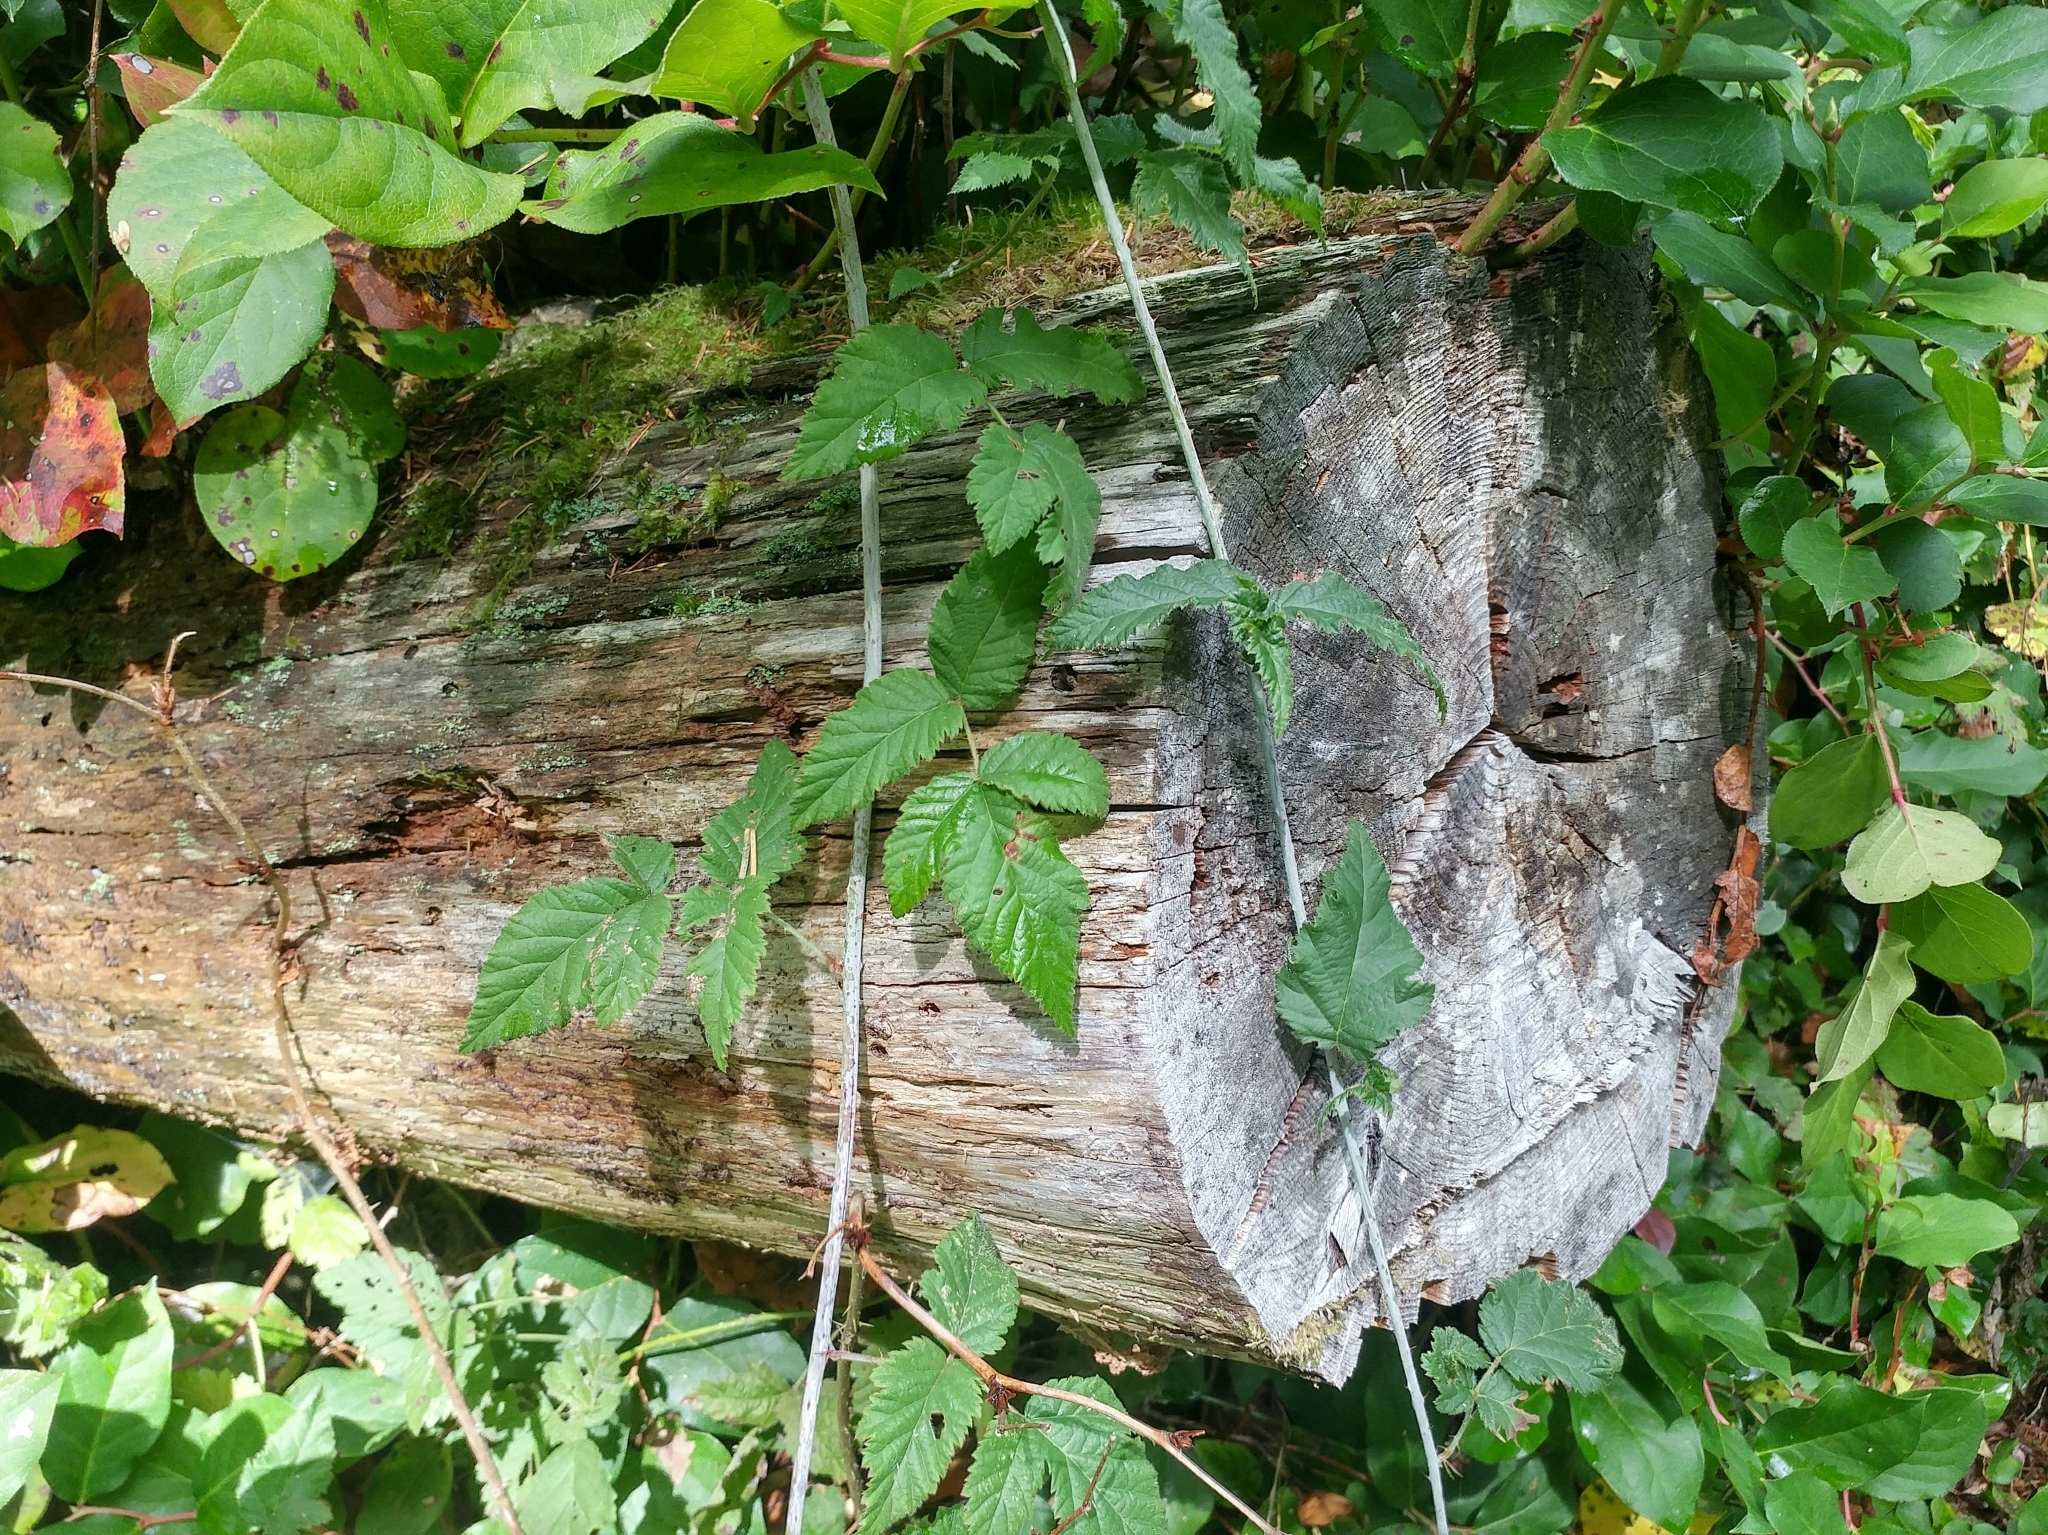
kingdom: Plantae
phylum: Tracheophyta
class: Magnoliopsida
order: Rosales
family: Rosaceae
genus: Rubus
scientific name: Rubus ursinus
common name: Pacific blackberry
